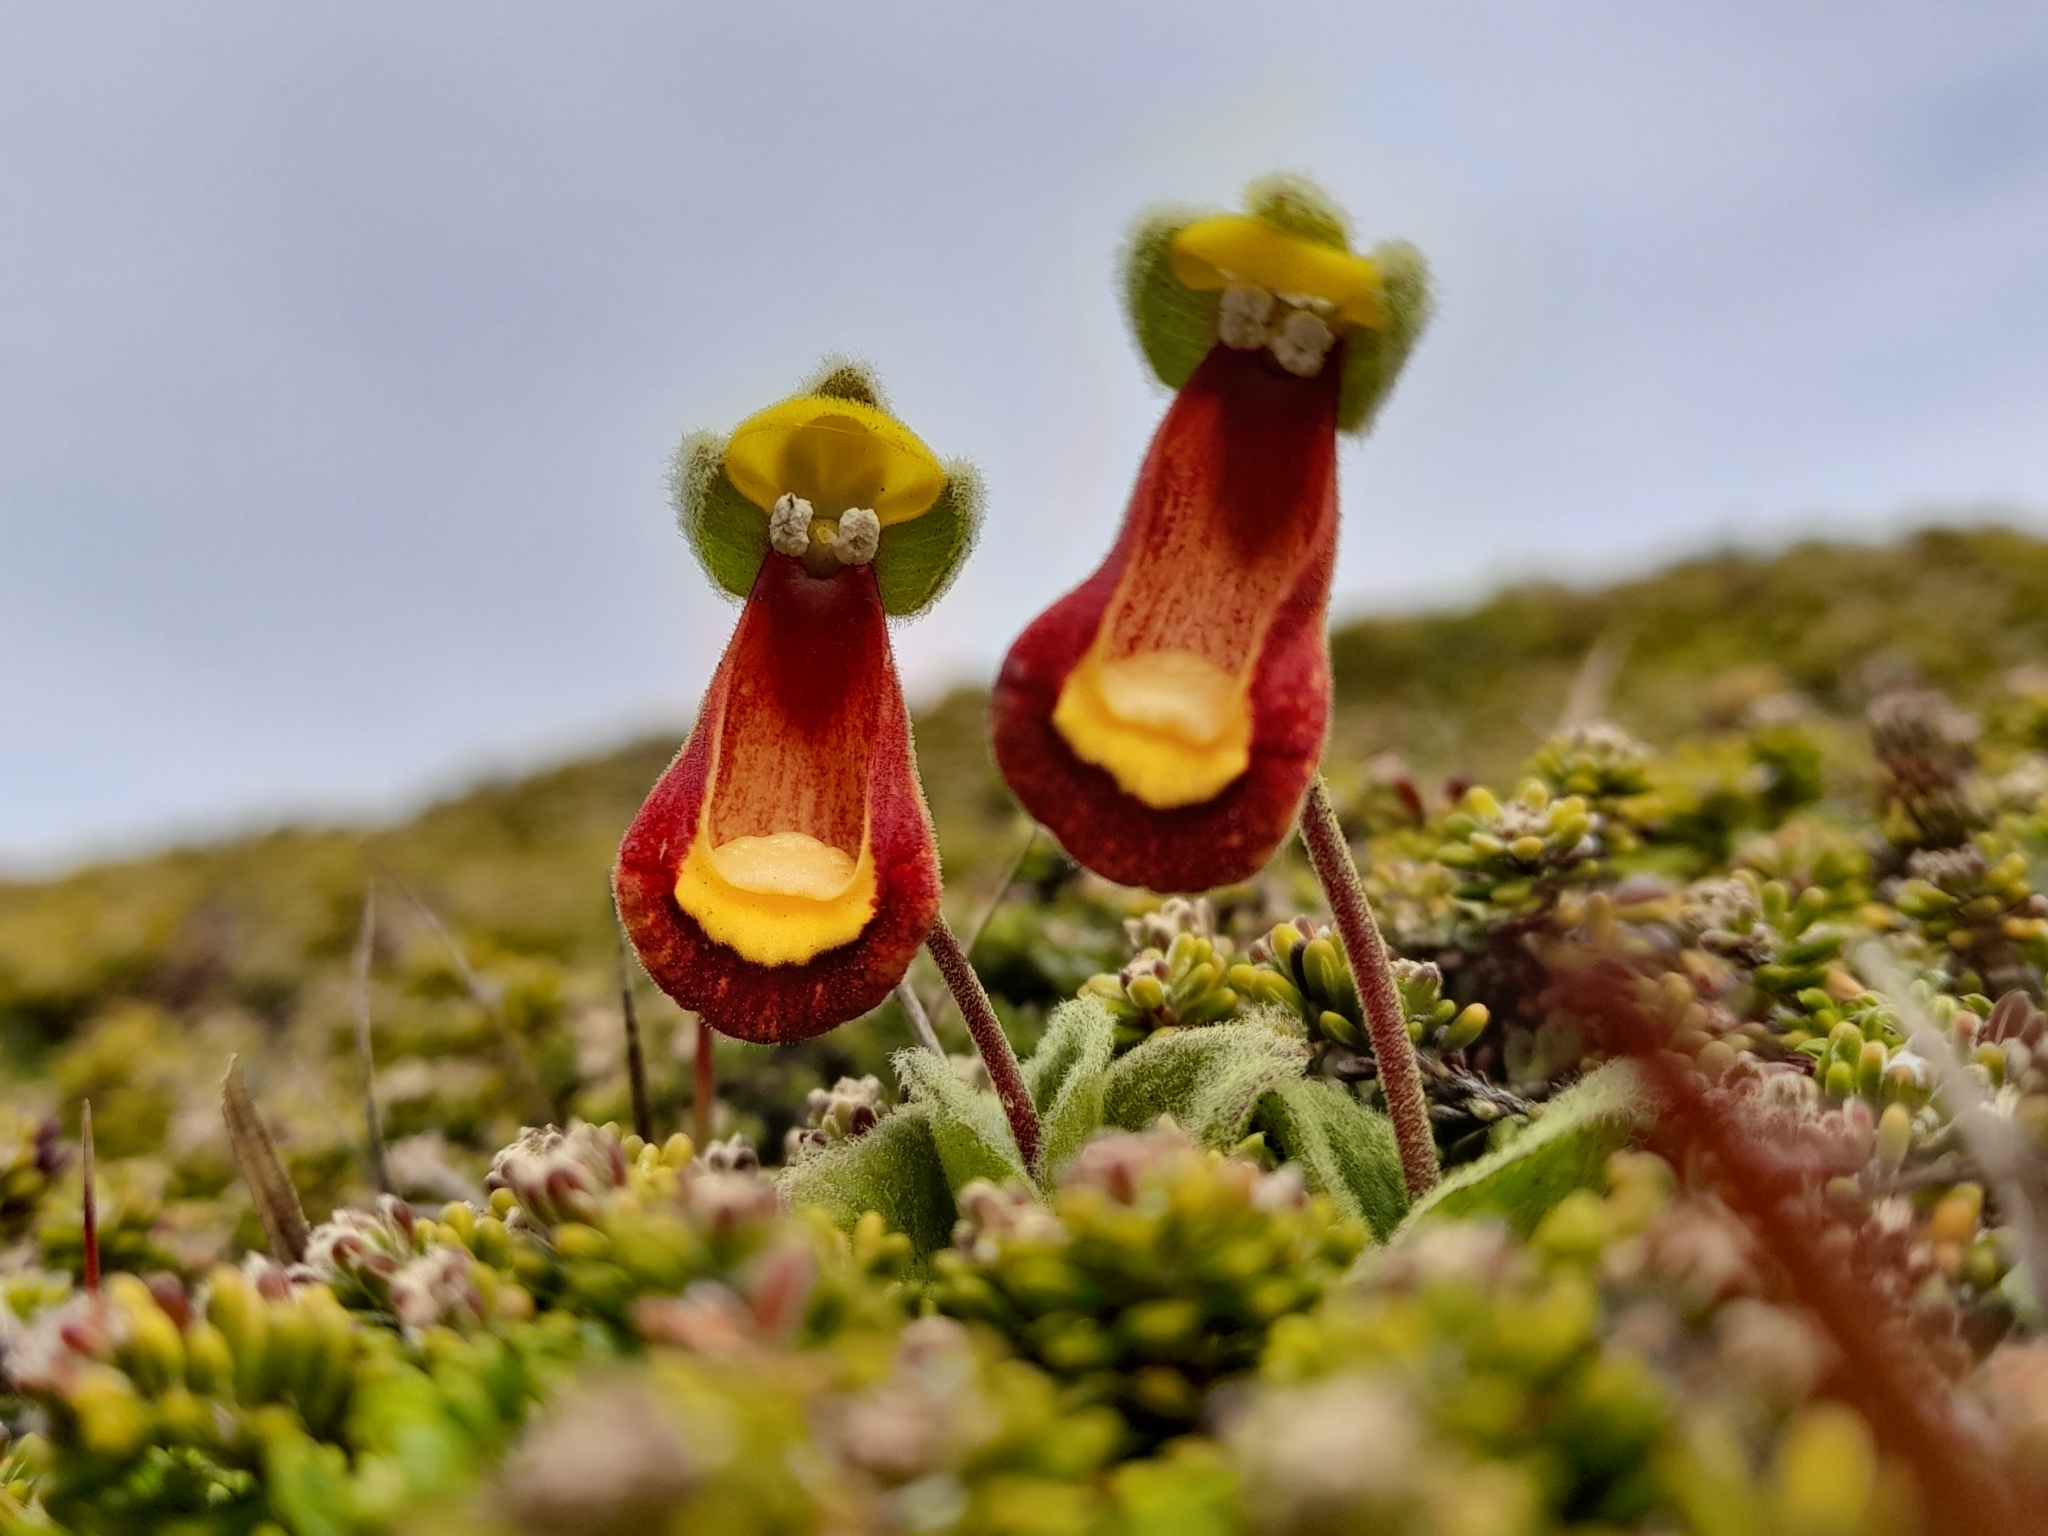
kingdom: Plantae
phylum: Tracheophyta
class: Magnoliopsida
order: Lamiales
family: Calceolariaceae
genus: Calceolaria
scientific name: Calceolaria fothergillii
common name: Lady's slipper
